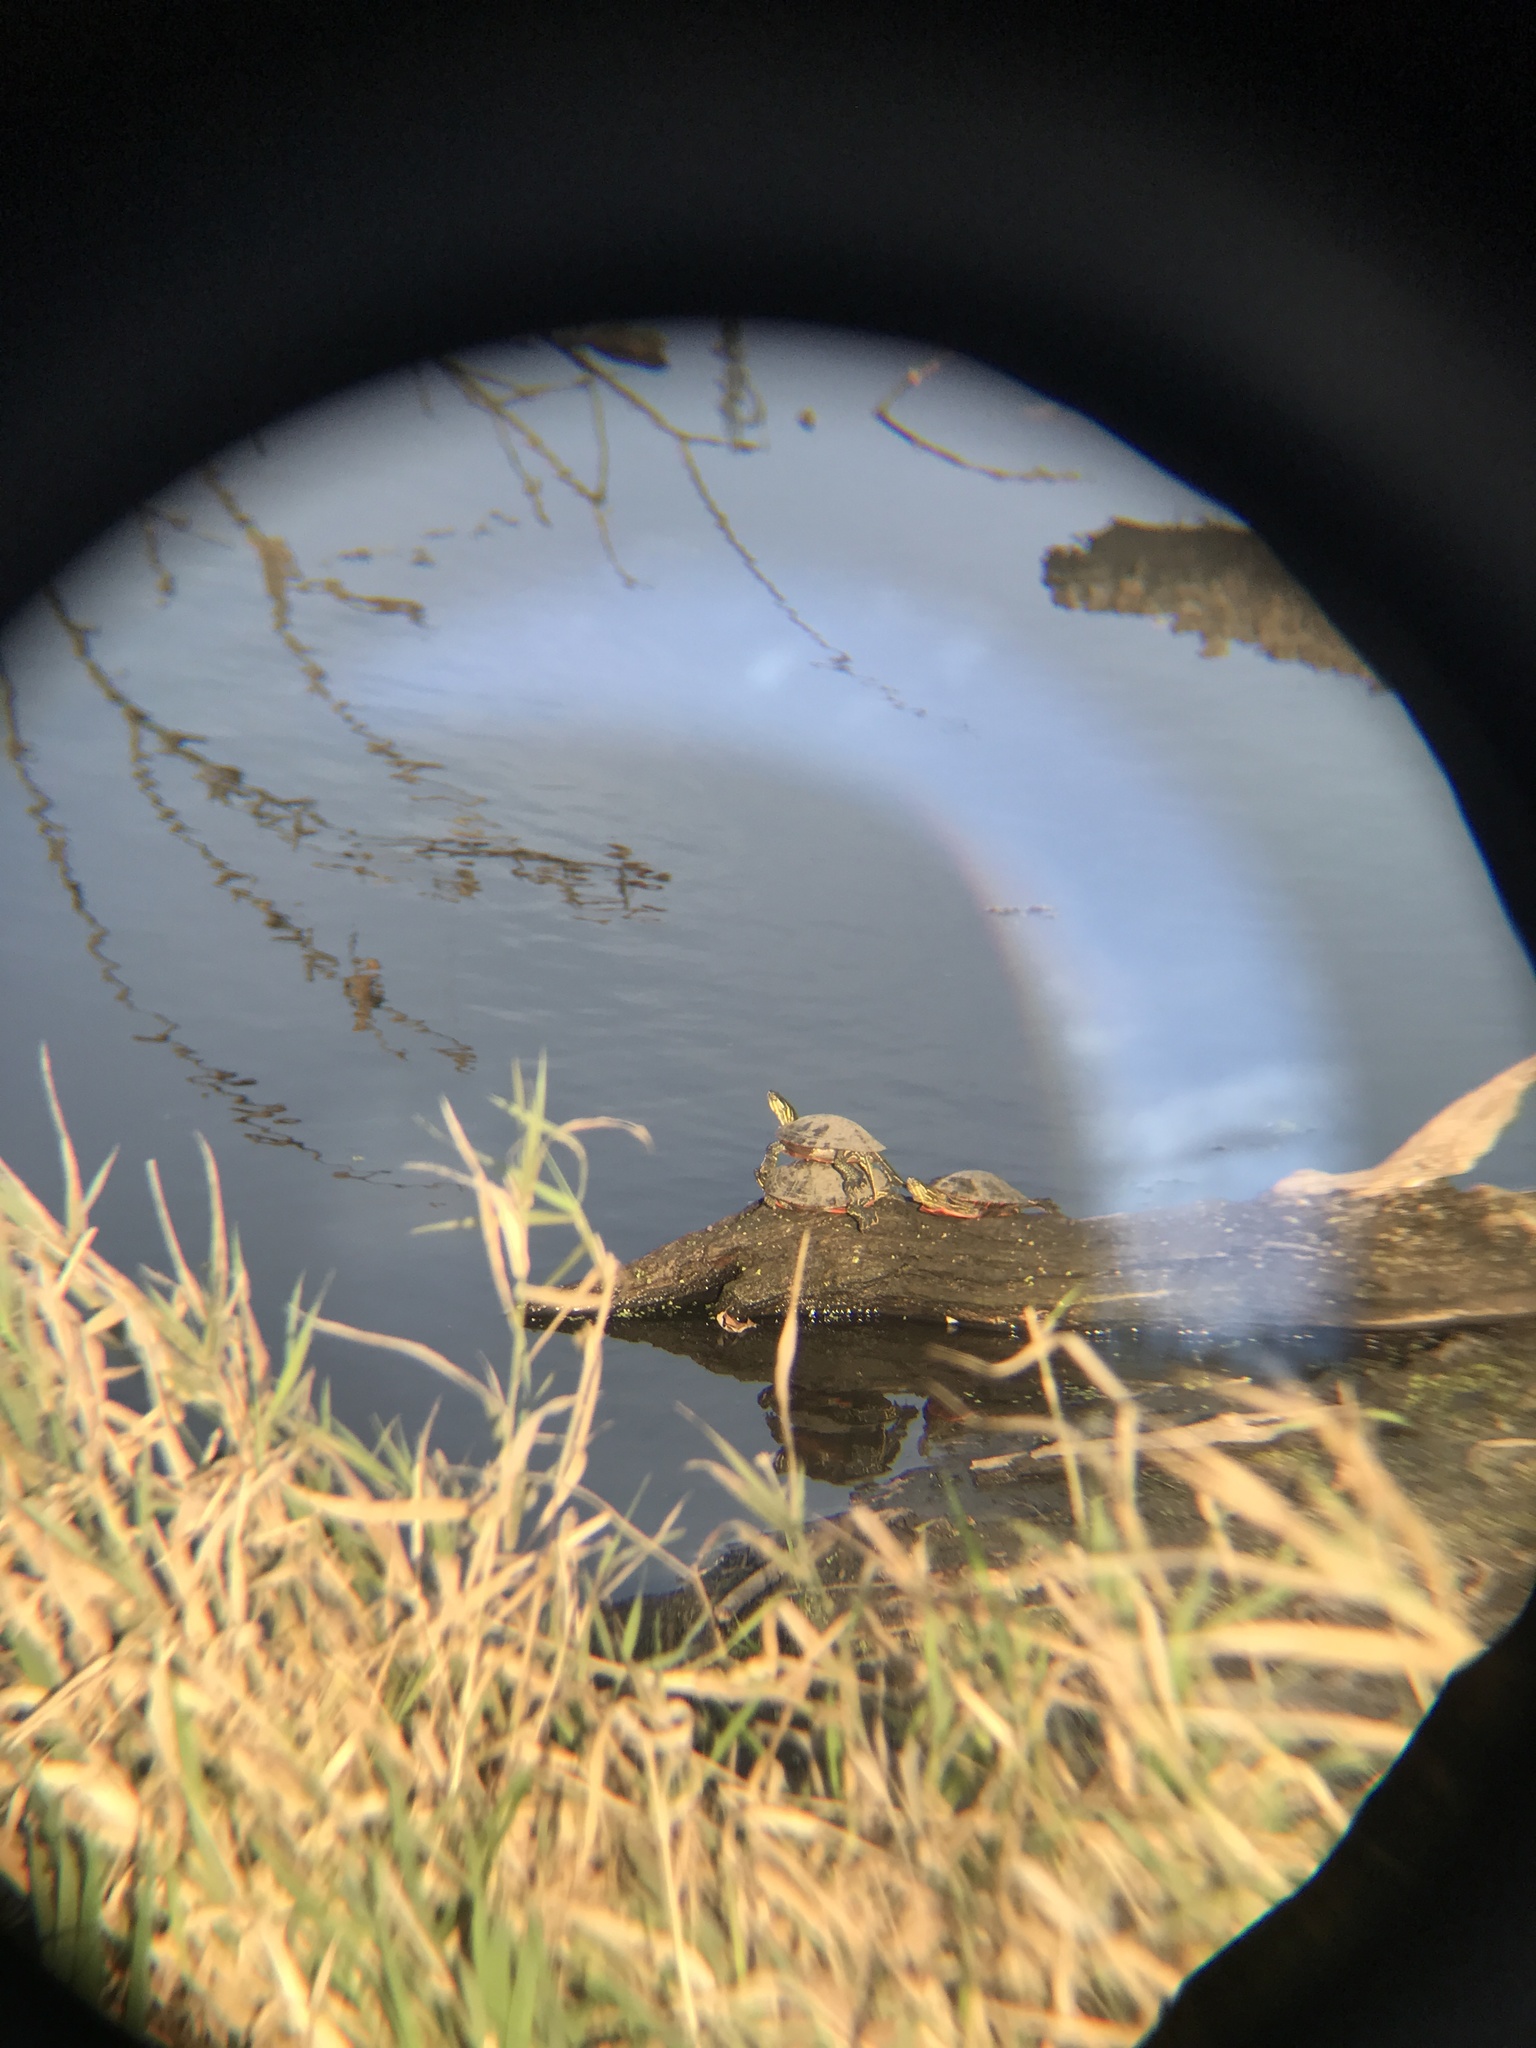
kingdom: Animalia
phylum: Chordata
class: Testudines
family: Emydidae
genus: Chrysemys
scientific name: Chrysemys picta
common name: Painted turtle
